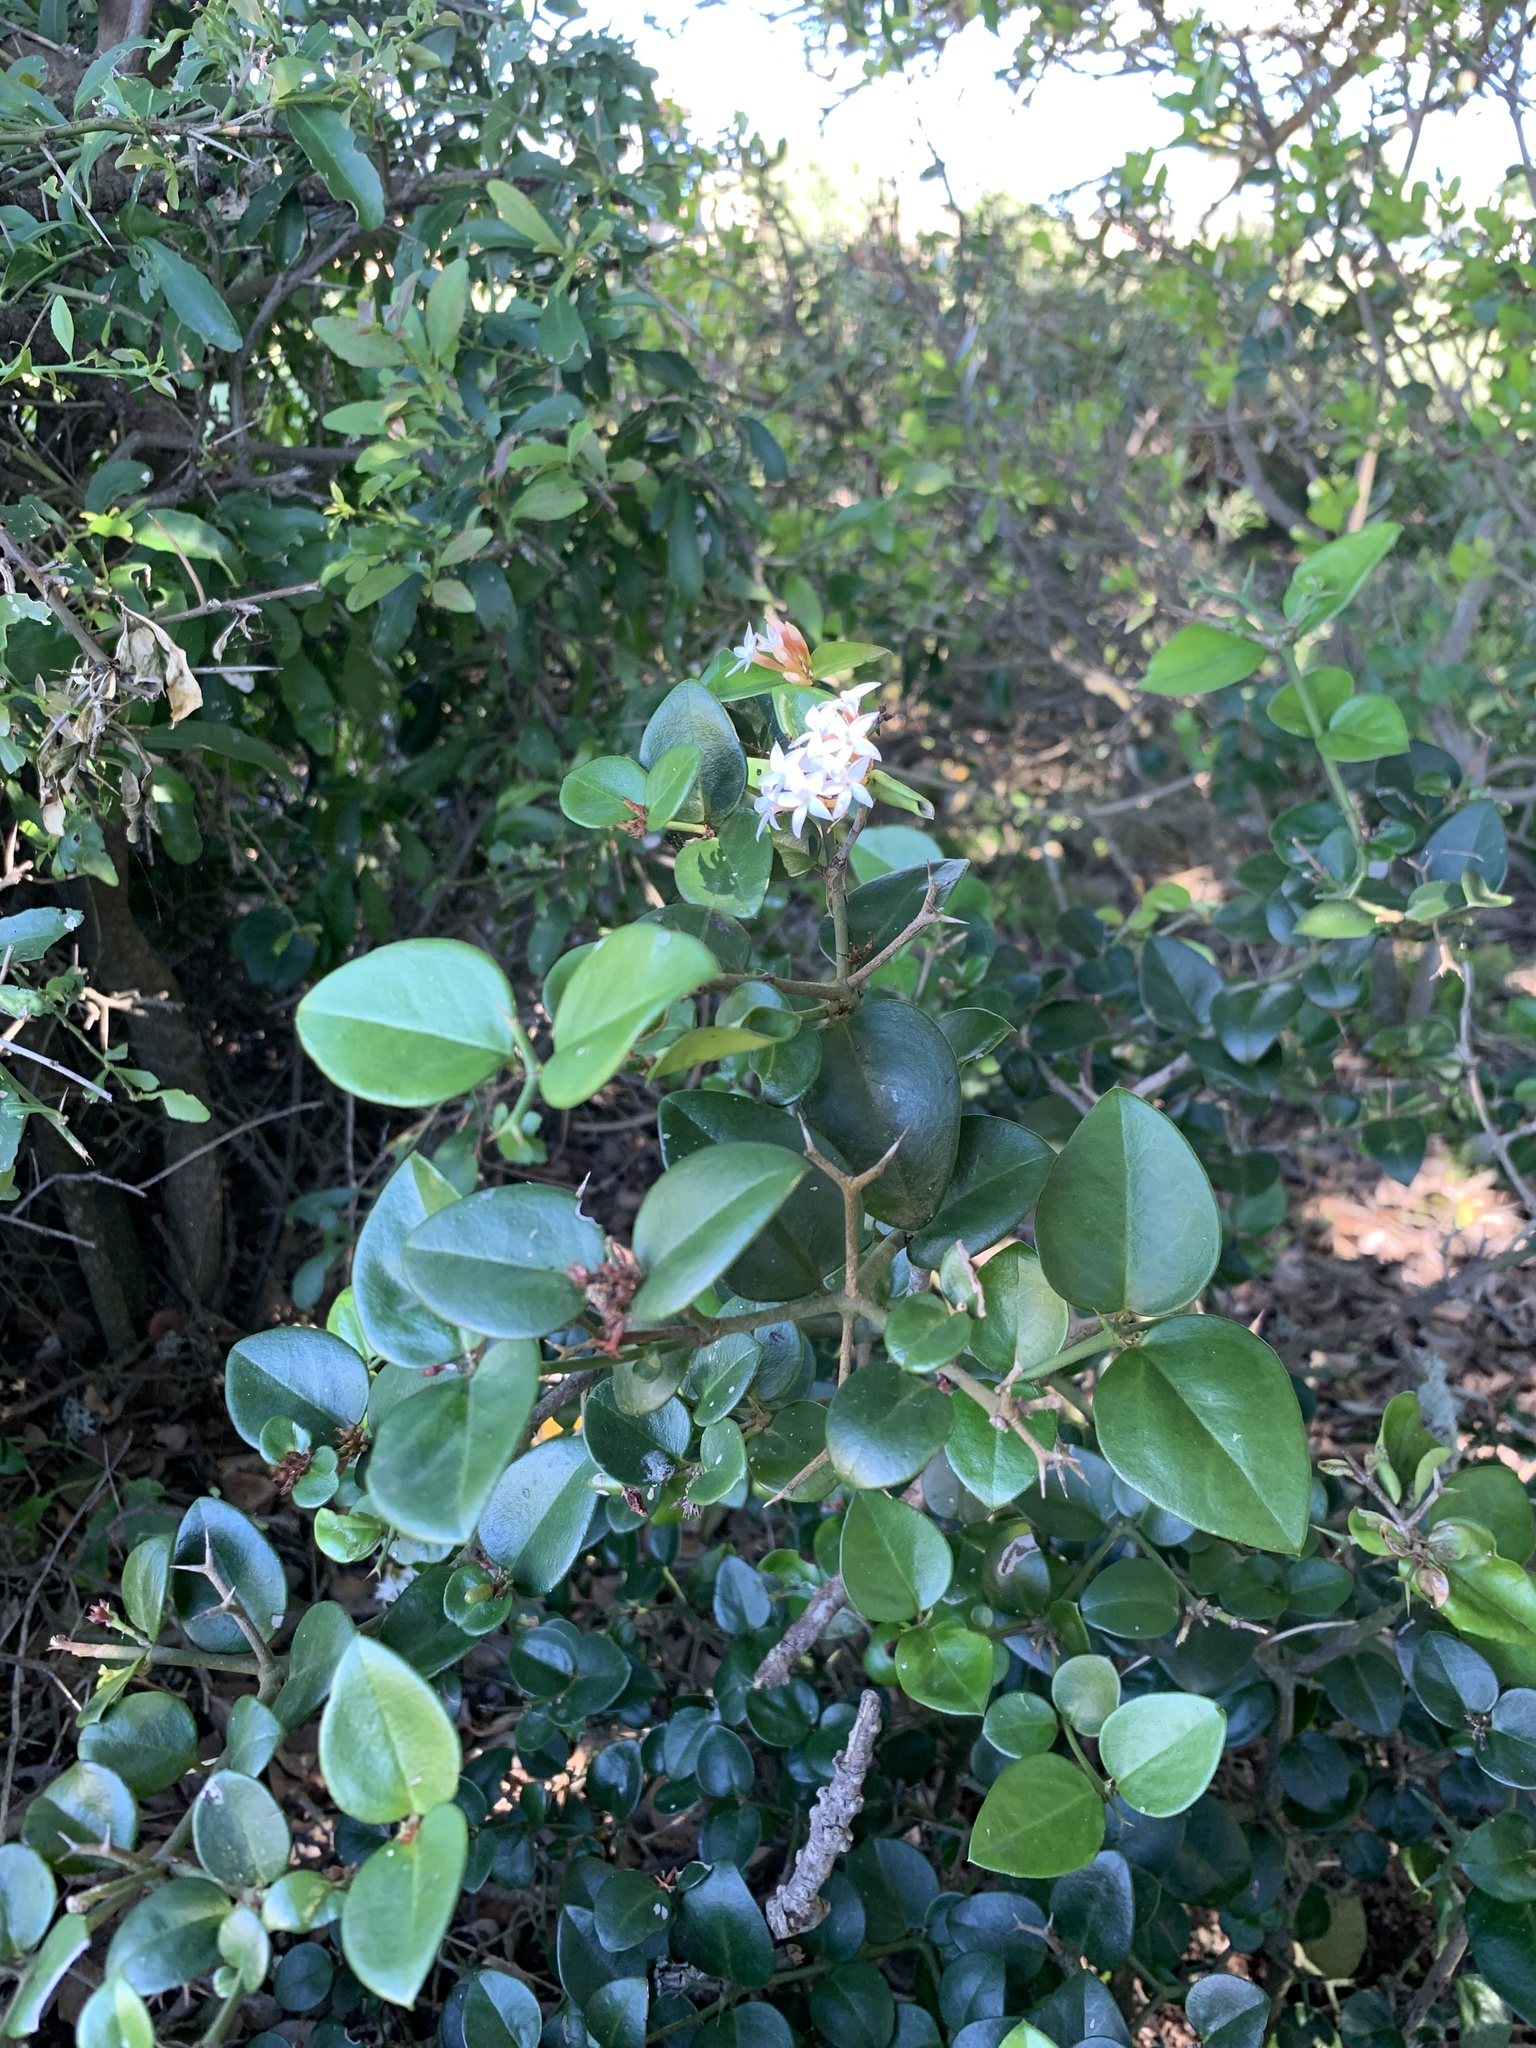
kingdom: Plantae
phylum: Tracheophyta
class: Magnoliopsida
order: Gentianales
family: Apocynaceae
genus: Carissa
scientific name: Carissa bispinosa
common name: Forest num-num
